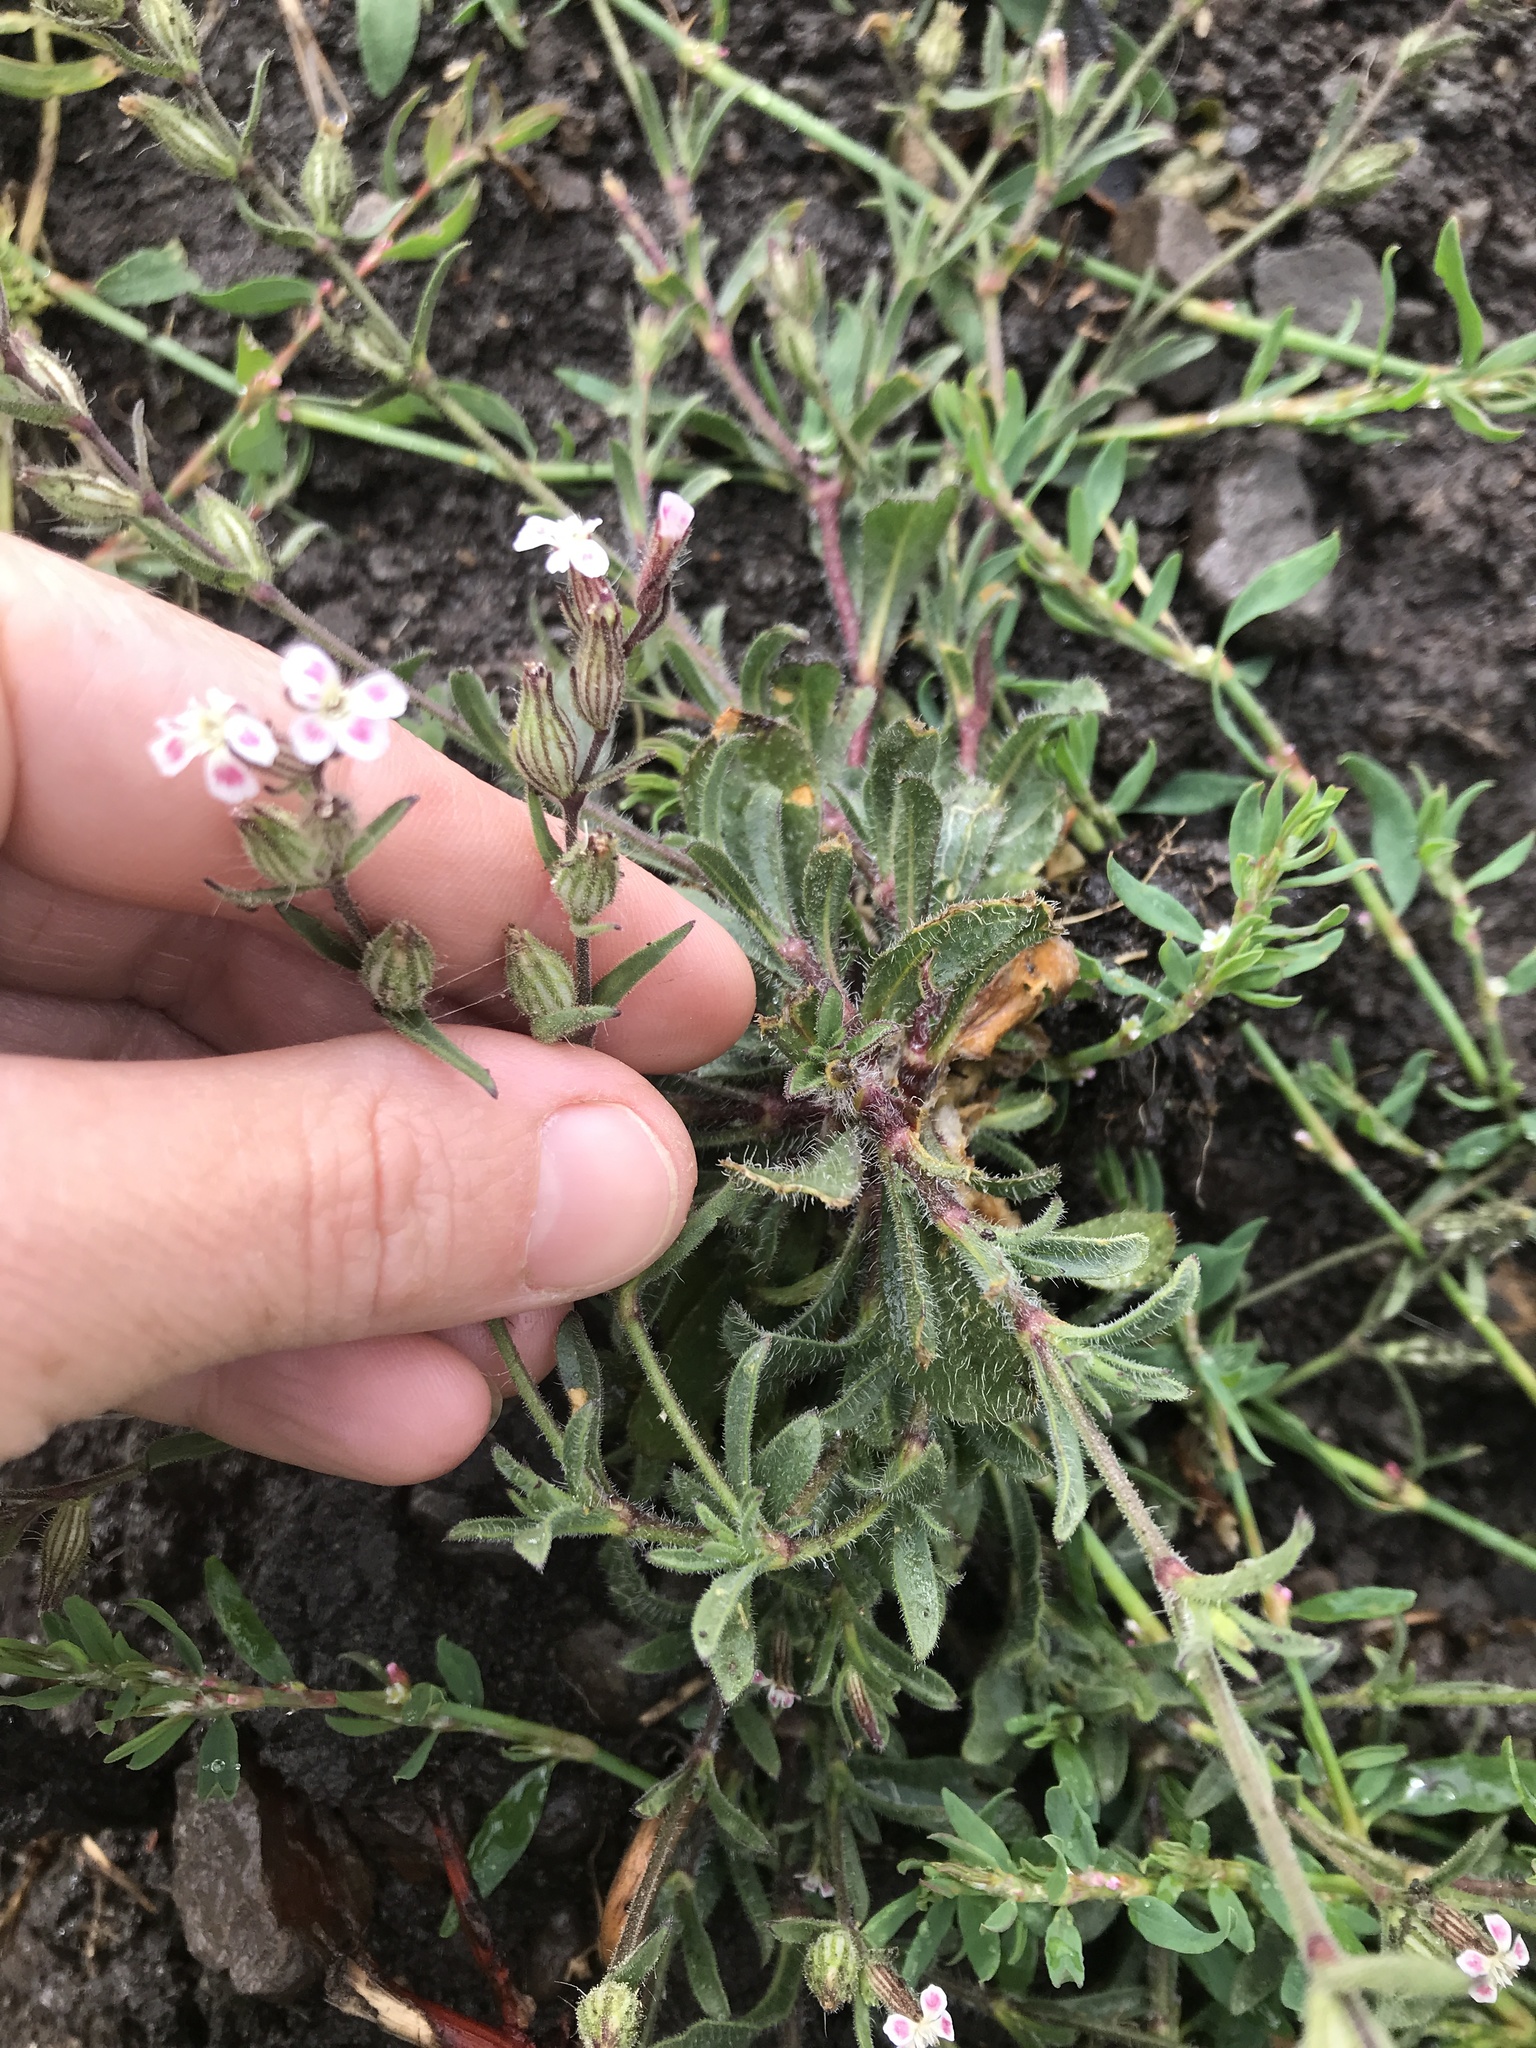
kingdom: Plantae
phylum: Tracheophyta
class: Magnoliopsida
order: Caryophyllales
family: Caryophyllaceae
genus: Silene
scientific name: Silene gallica
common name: Small-flowered catchfly
